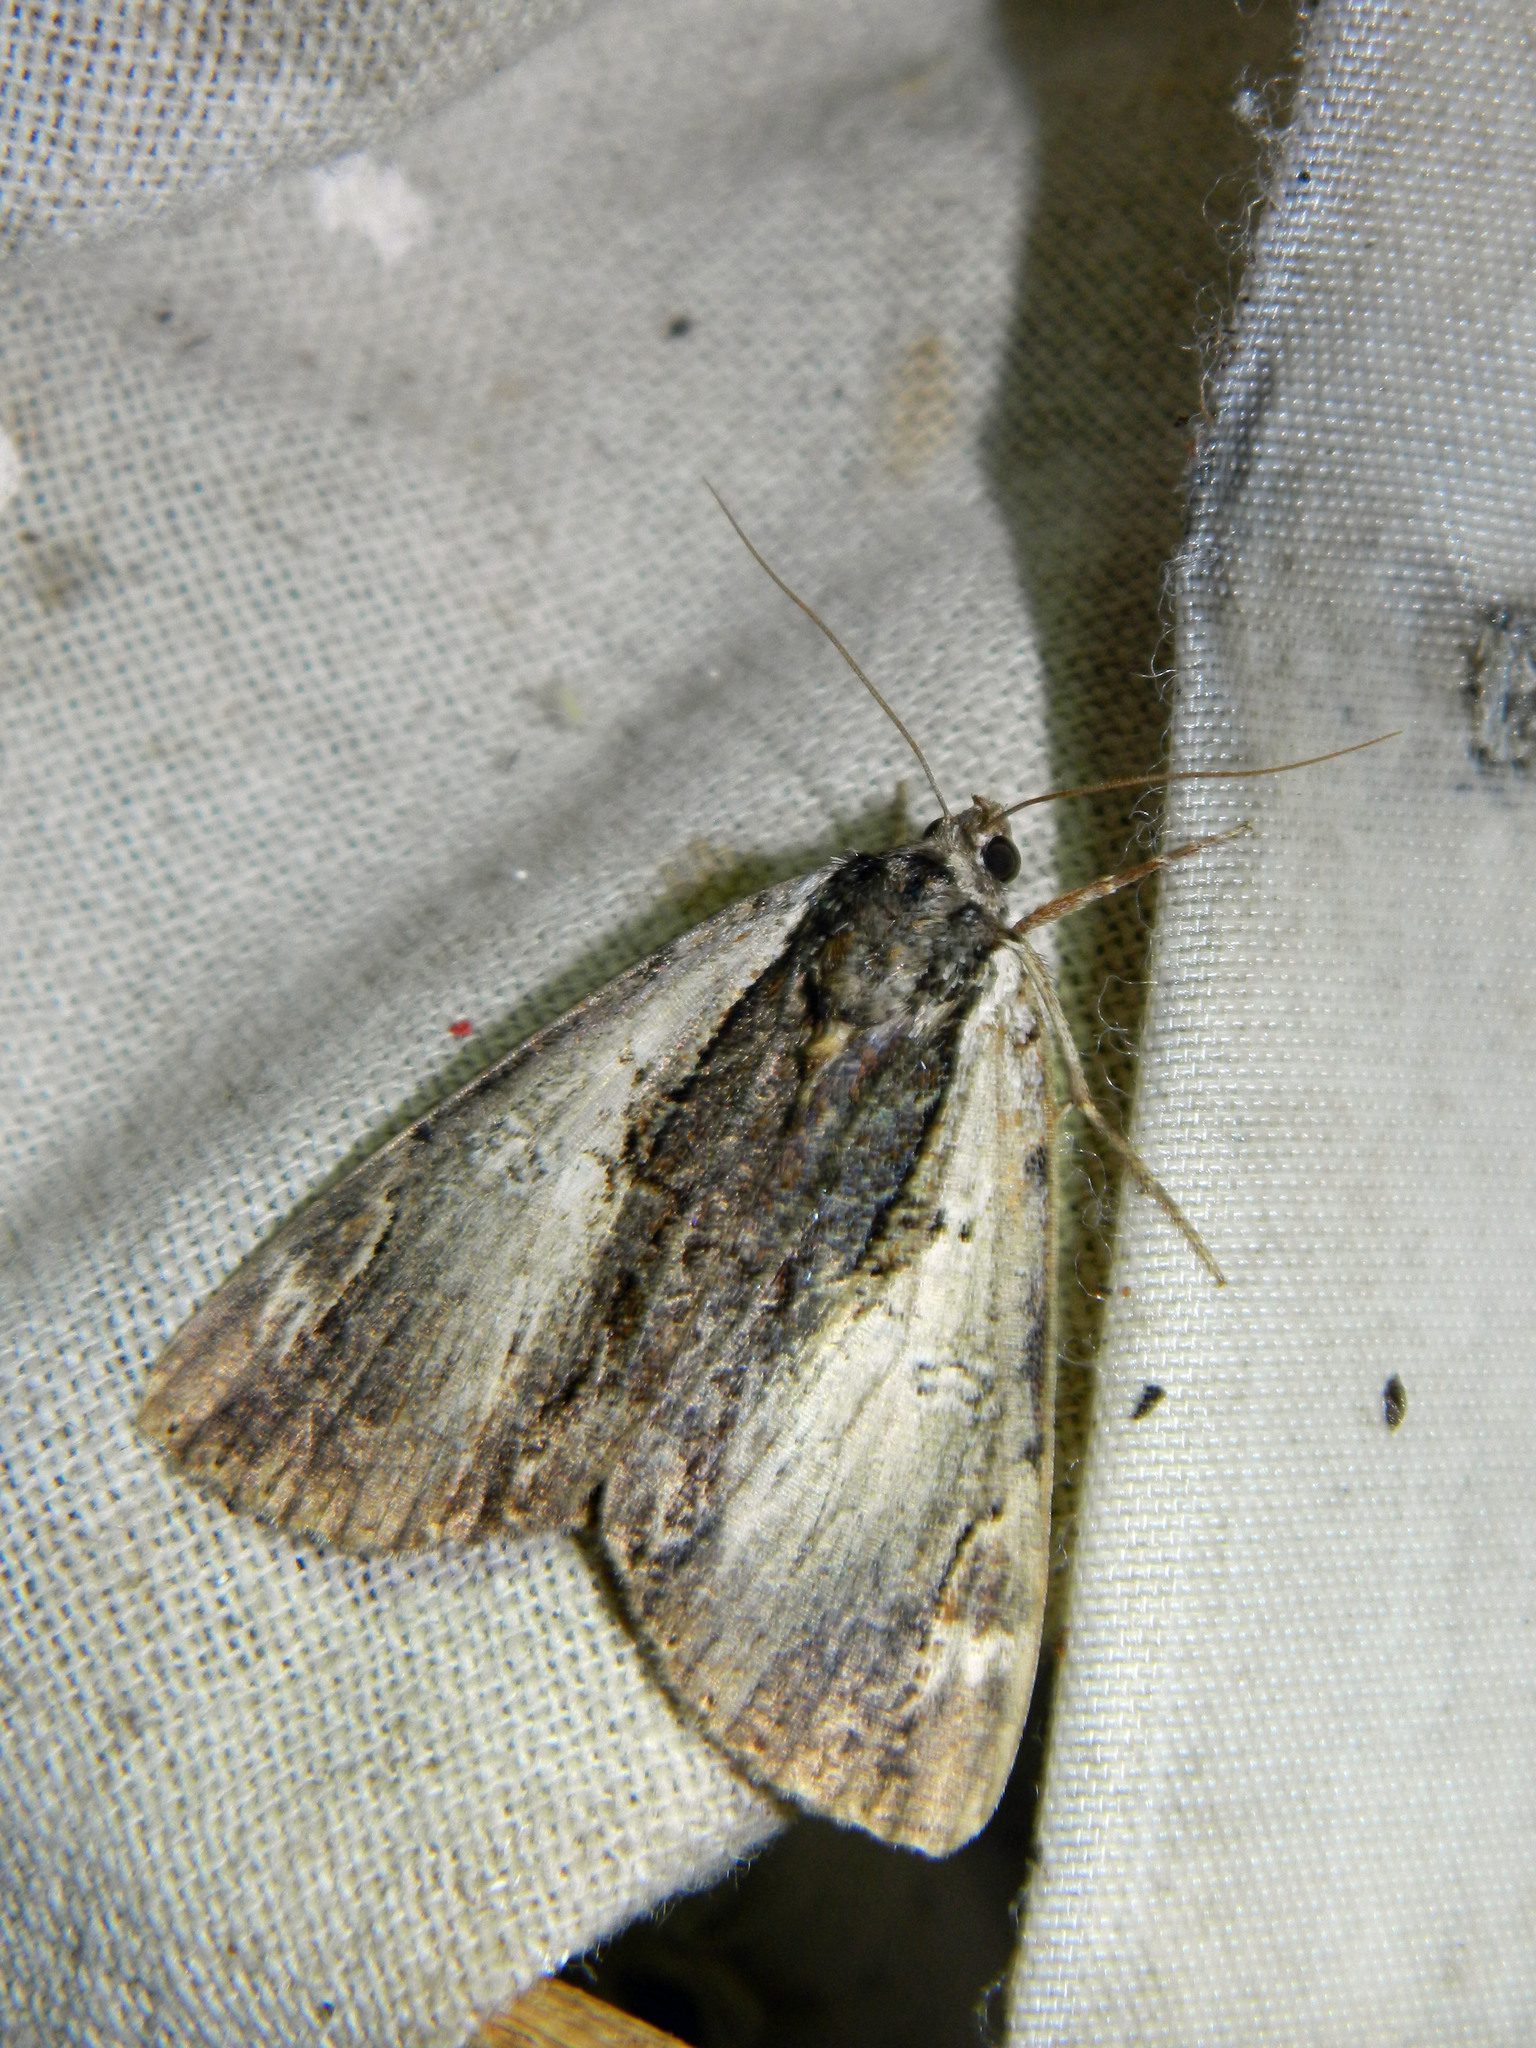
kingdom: Animalia
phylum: Arthropoda
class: Insecta
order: Lepidoptera
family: Erebidae
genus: Catocala
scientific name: Catocala ultronia
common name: Ultronia underwing
